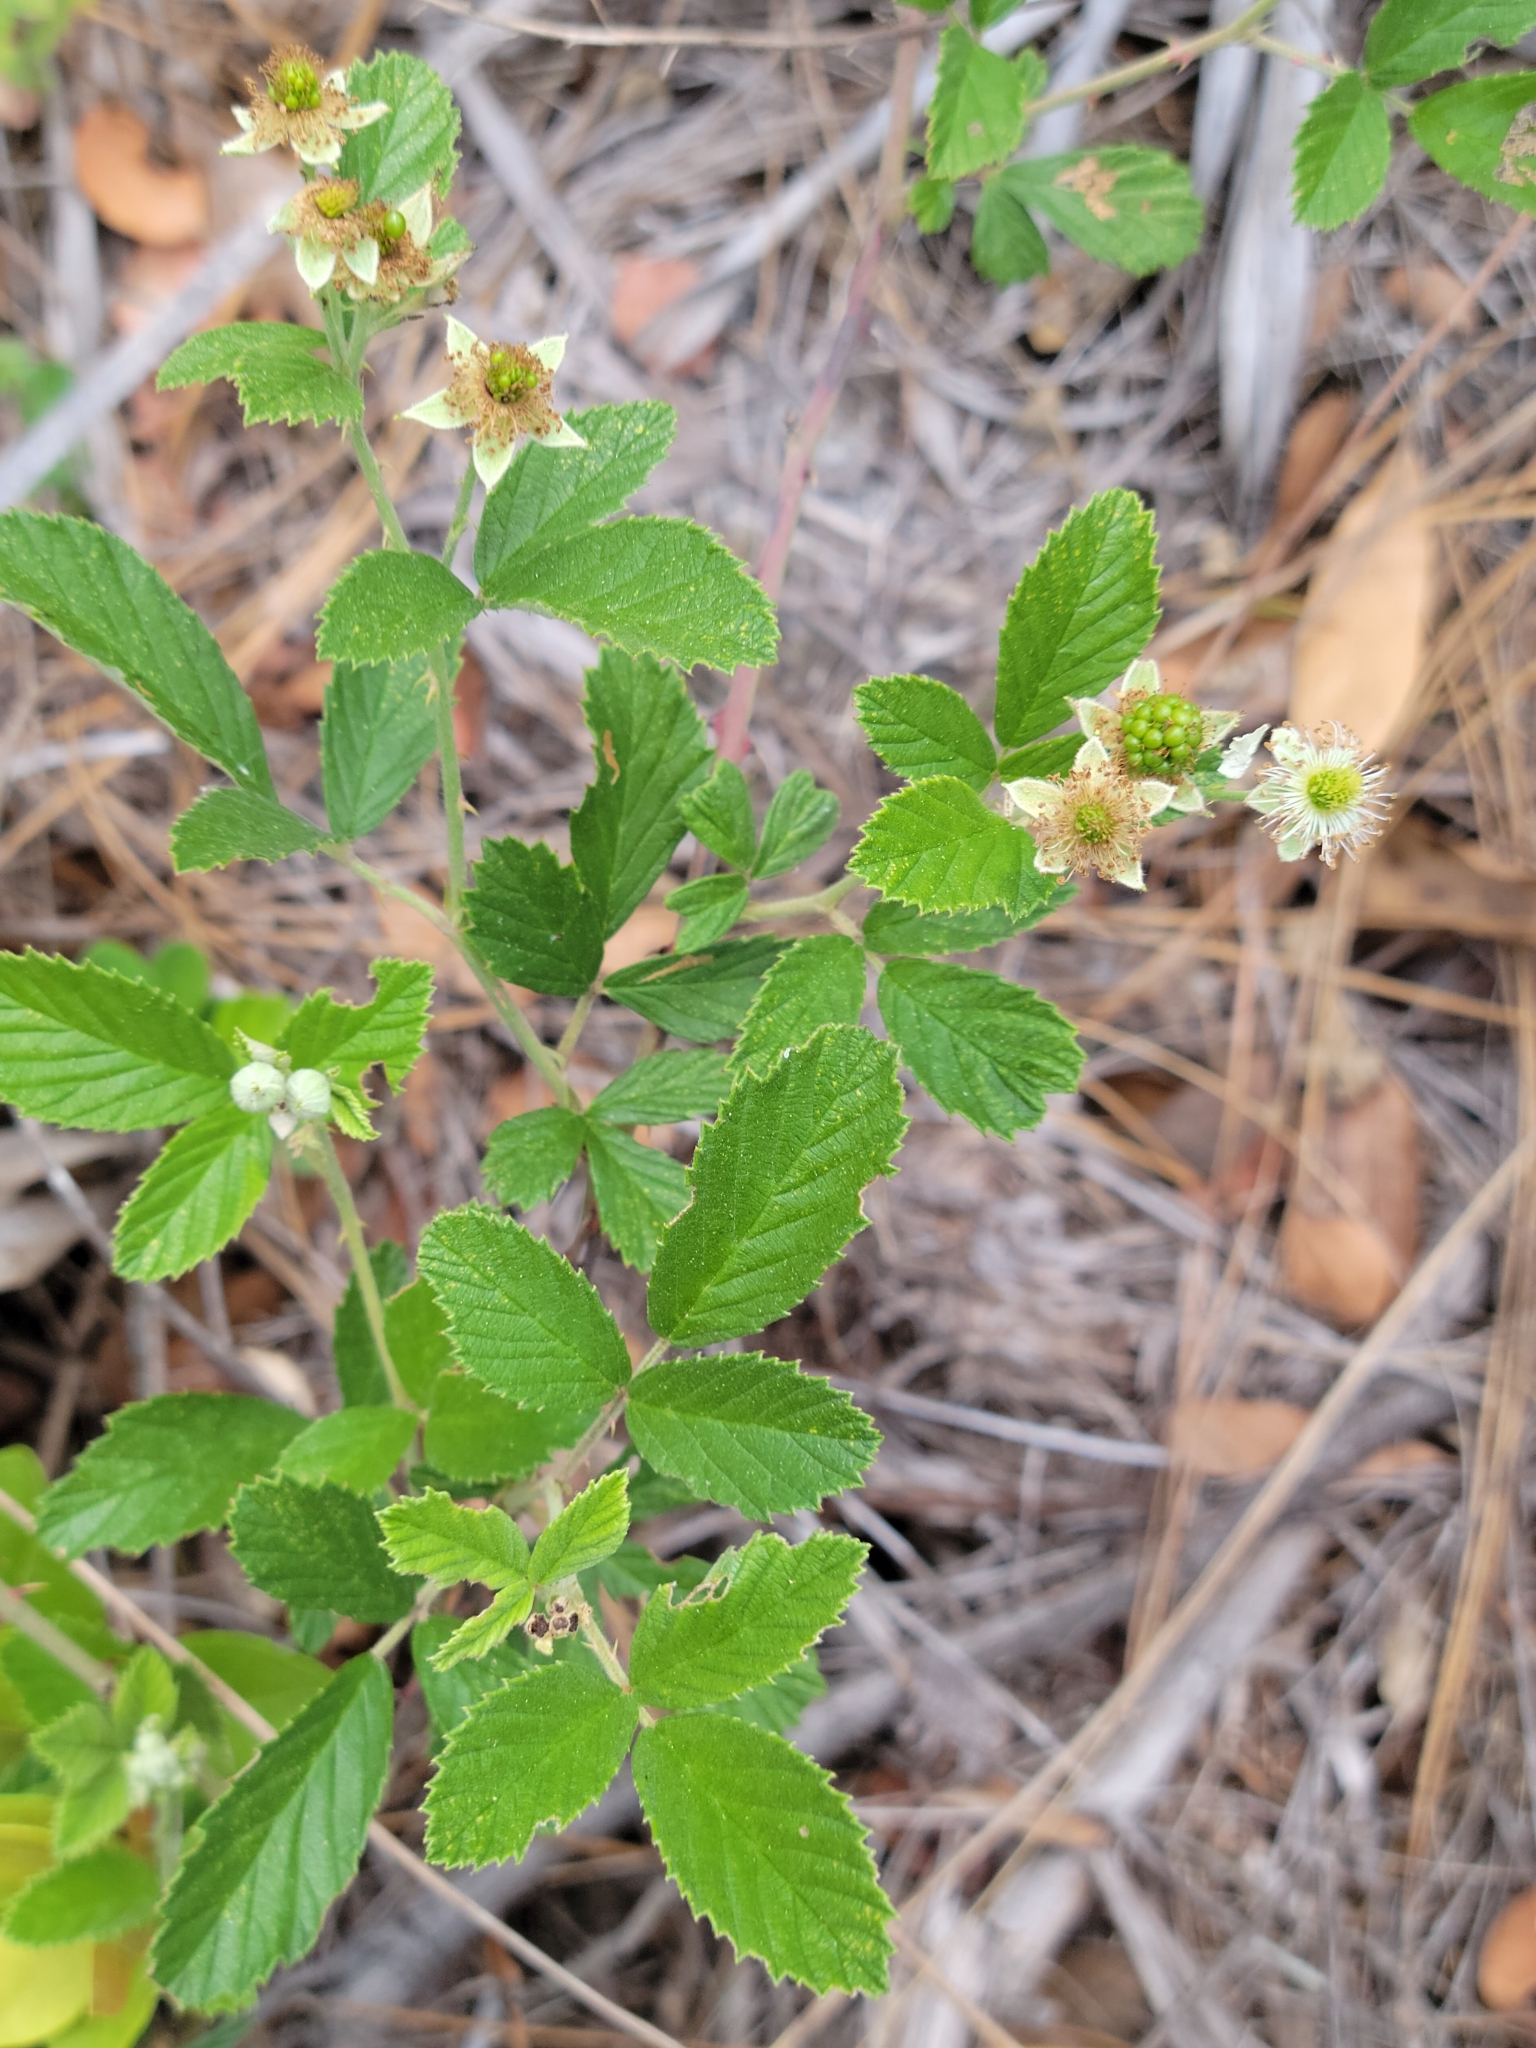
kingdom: Plantae
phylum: Tracheophyta
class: Magnoliopsida
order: Rosales
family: Rosaceae
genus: Rubus
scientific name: Rubus cuneifolius
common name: American bramble
